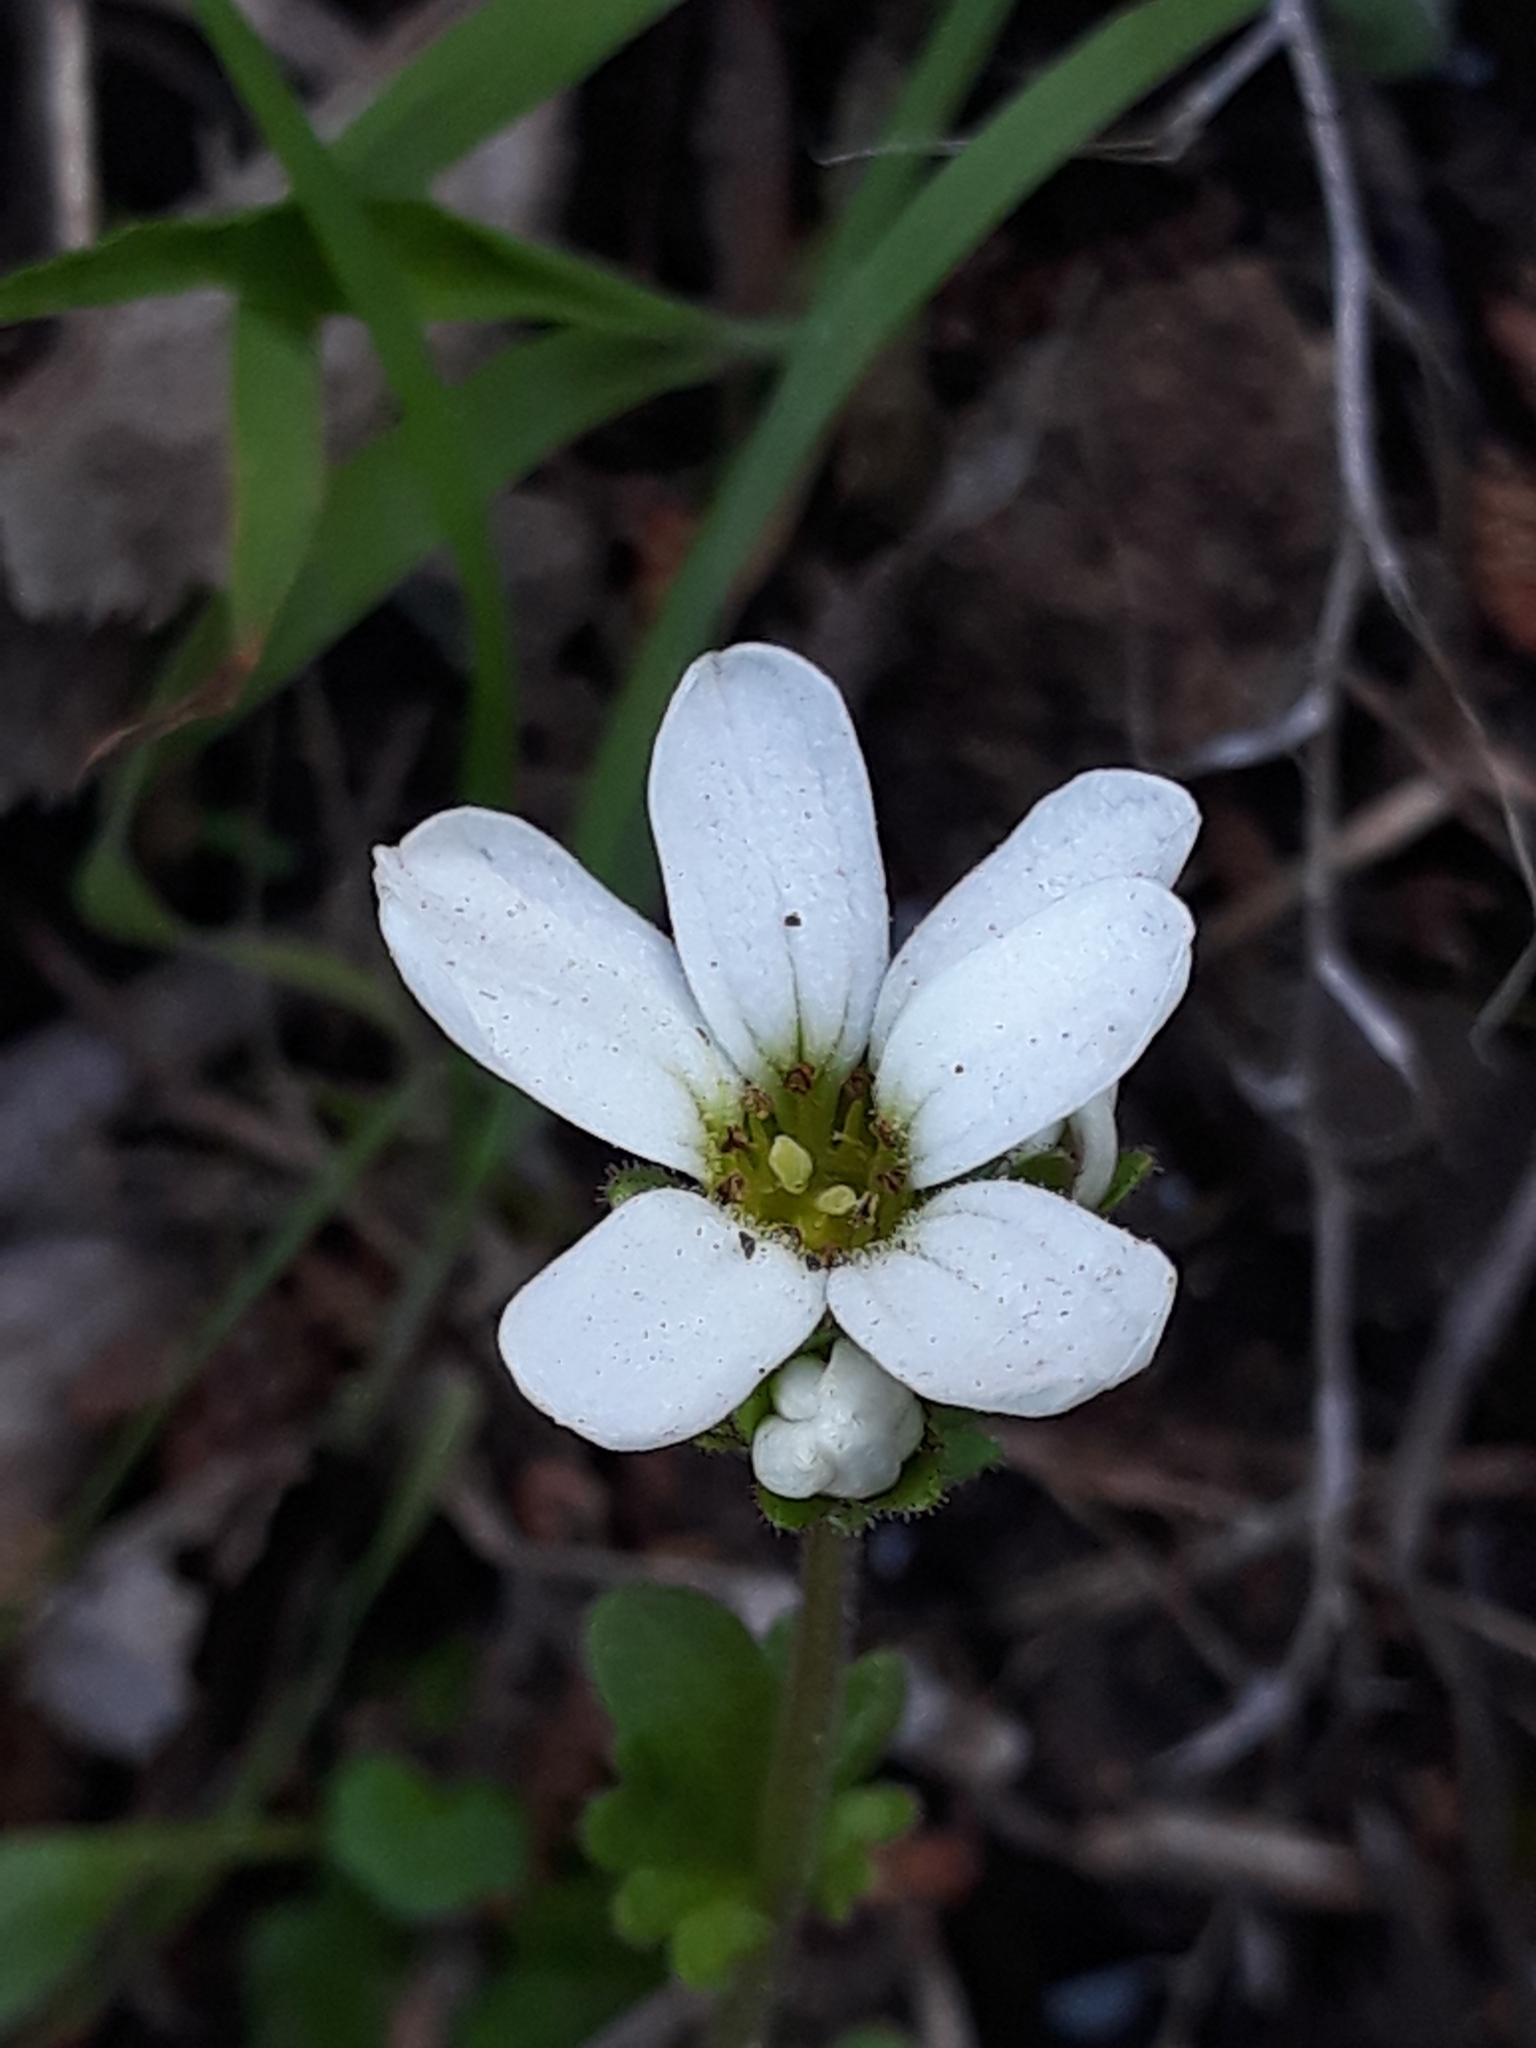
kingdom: Plantae
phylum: Tracheophyta
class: Magnoliopsida
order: Saxifragales
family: Saxifragaceae
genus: Saxifraga
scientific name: Saxifraga carpetana
